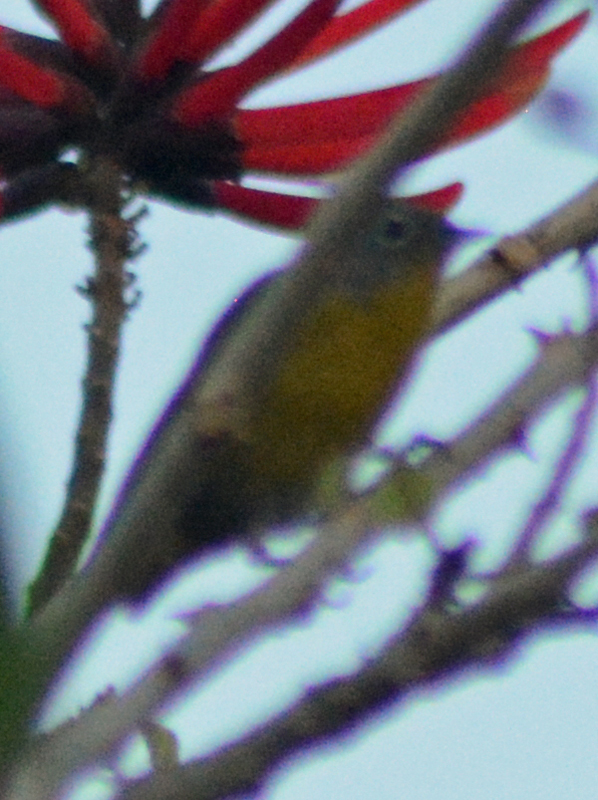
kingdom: Animalia
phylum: Chordata
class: Aves
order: Passeriformes
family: Parulidae
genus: Leiothlypis
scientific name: Leiothlypis ruficapilla
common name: Nashville warbler
